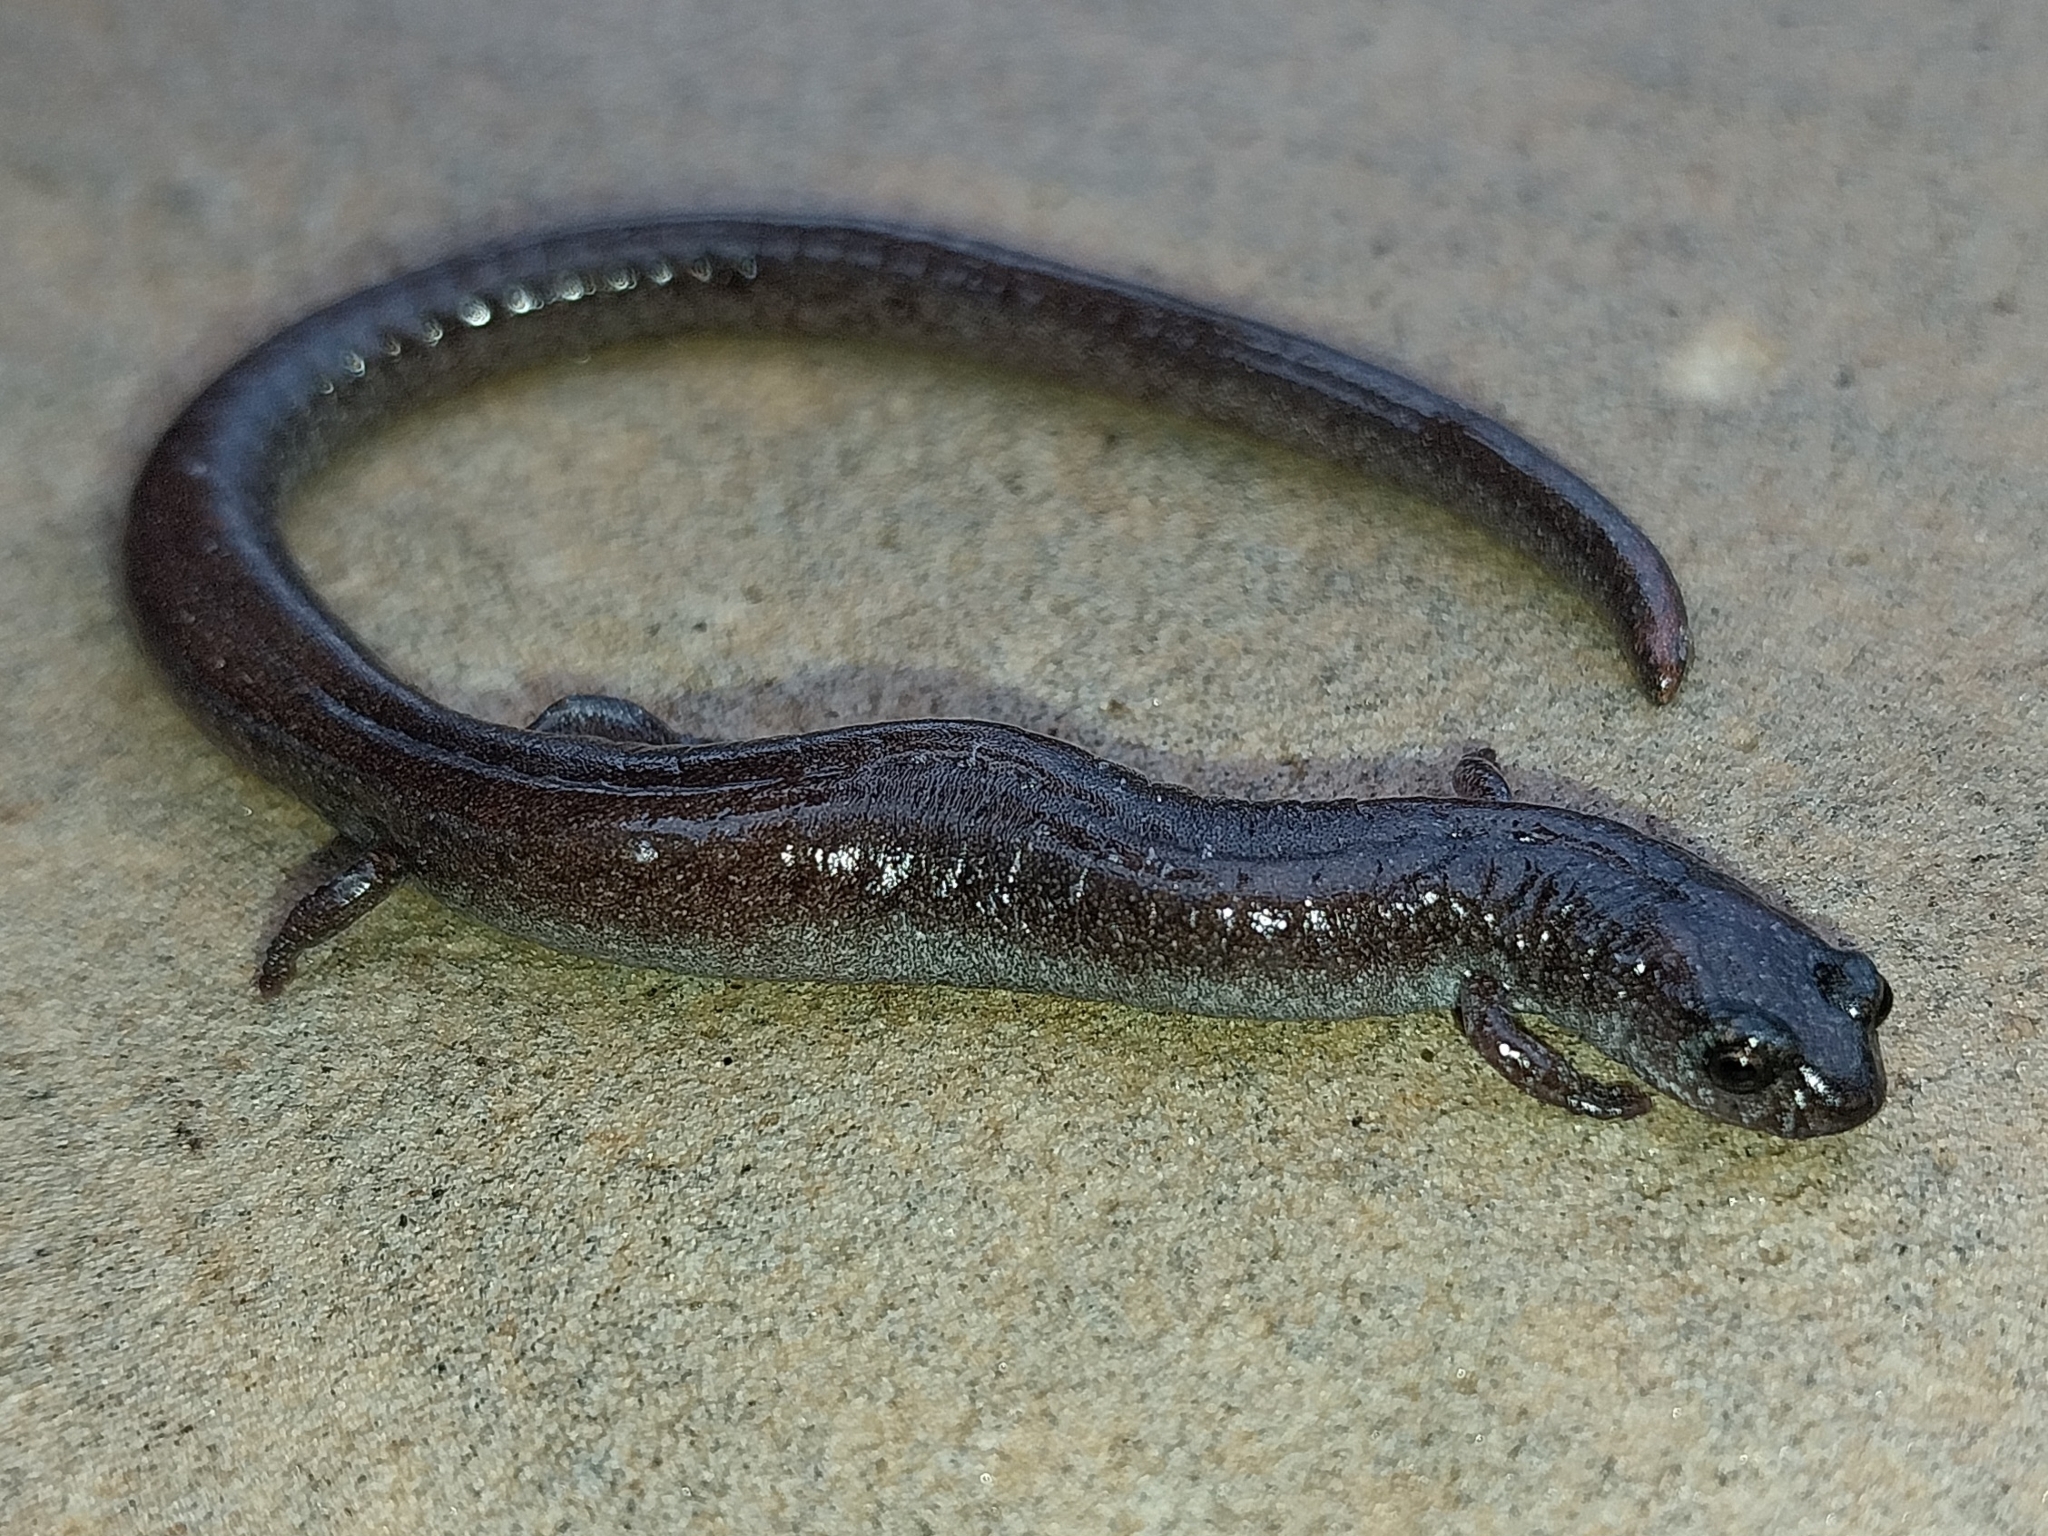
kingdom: Animalia
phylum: Chordata
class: Amphibia
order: Caudata
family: Plethodontidae
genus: Batrachoseps
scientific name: Batrachoseps major
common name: Garden slender salamander
